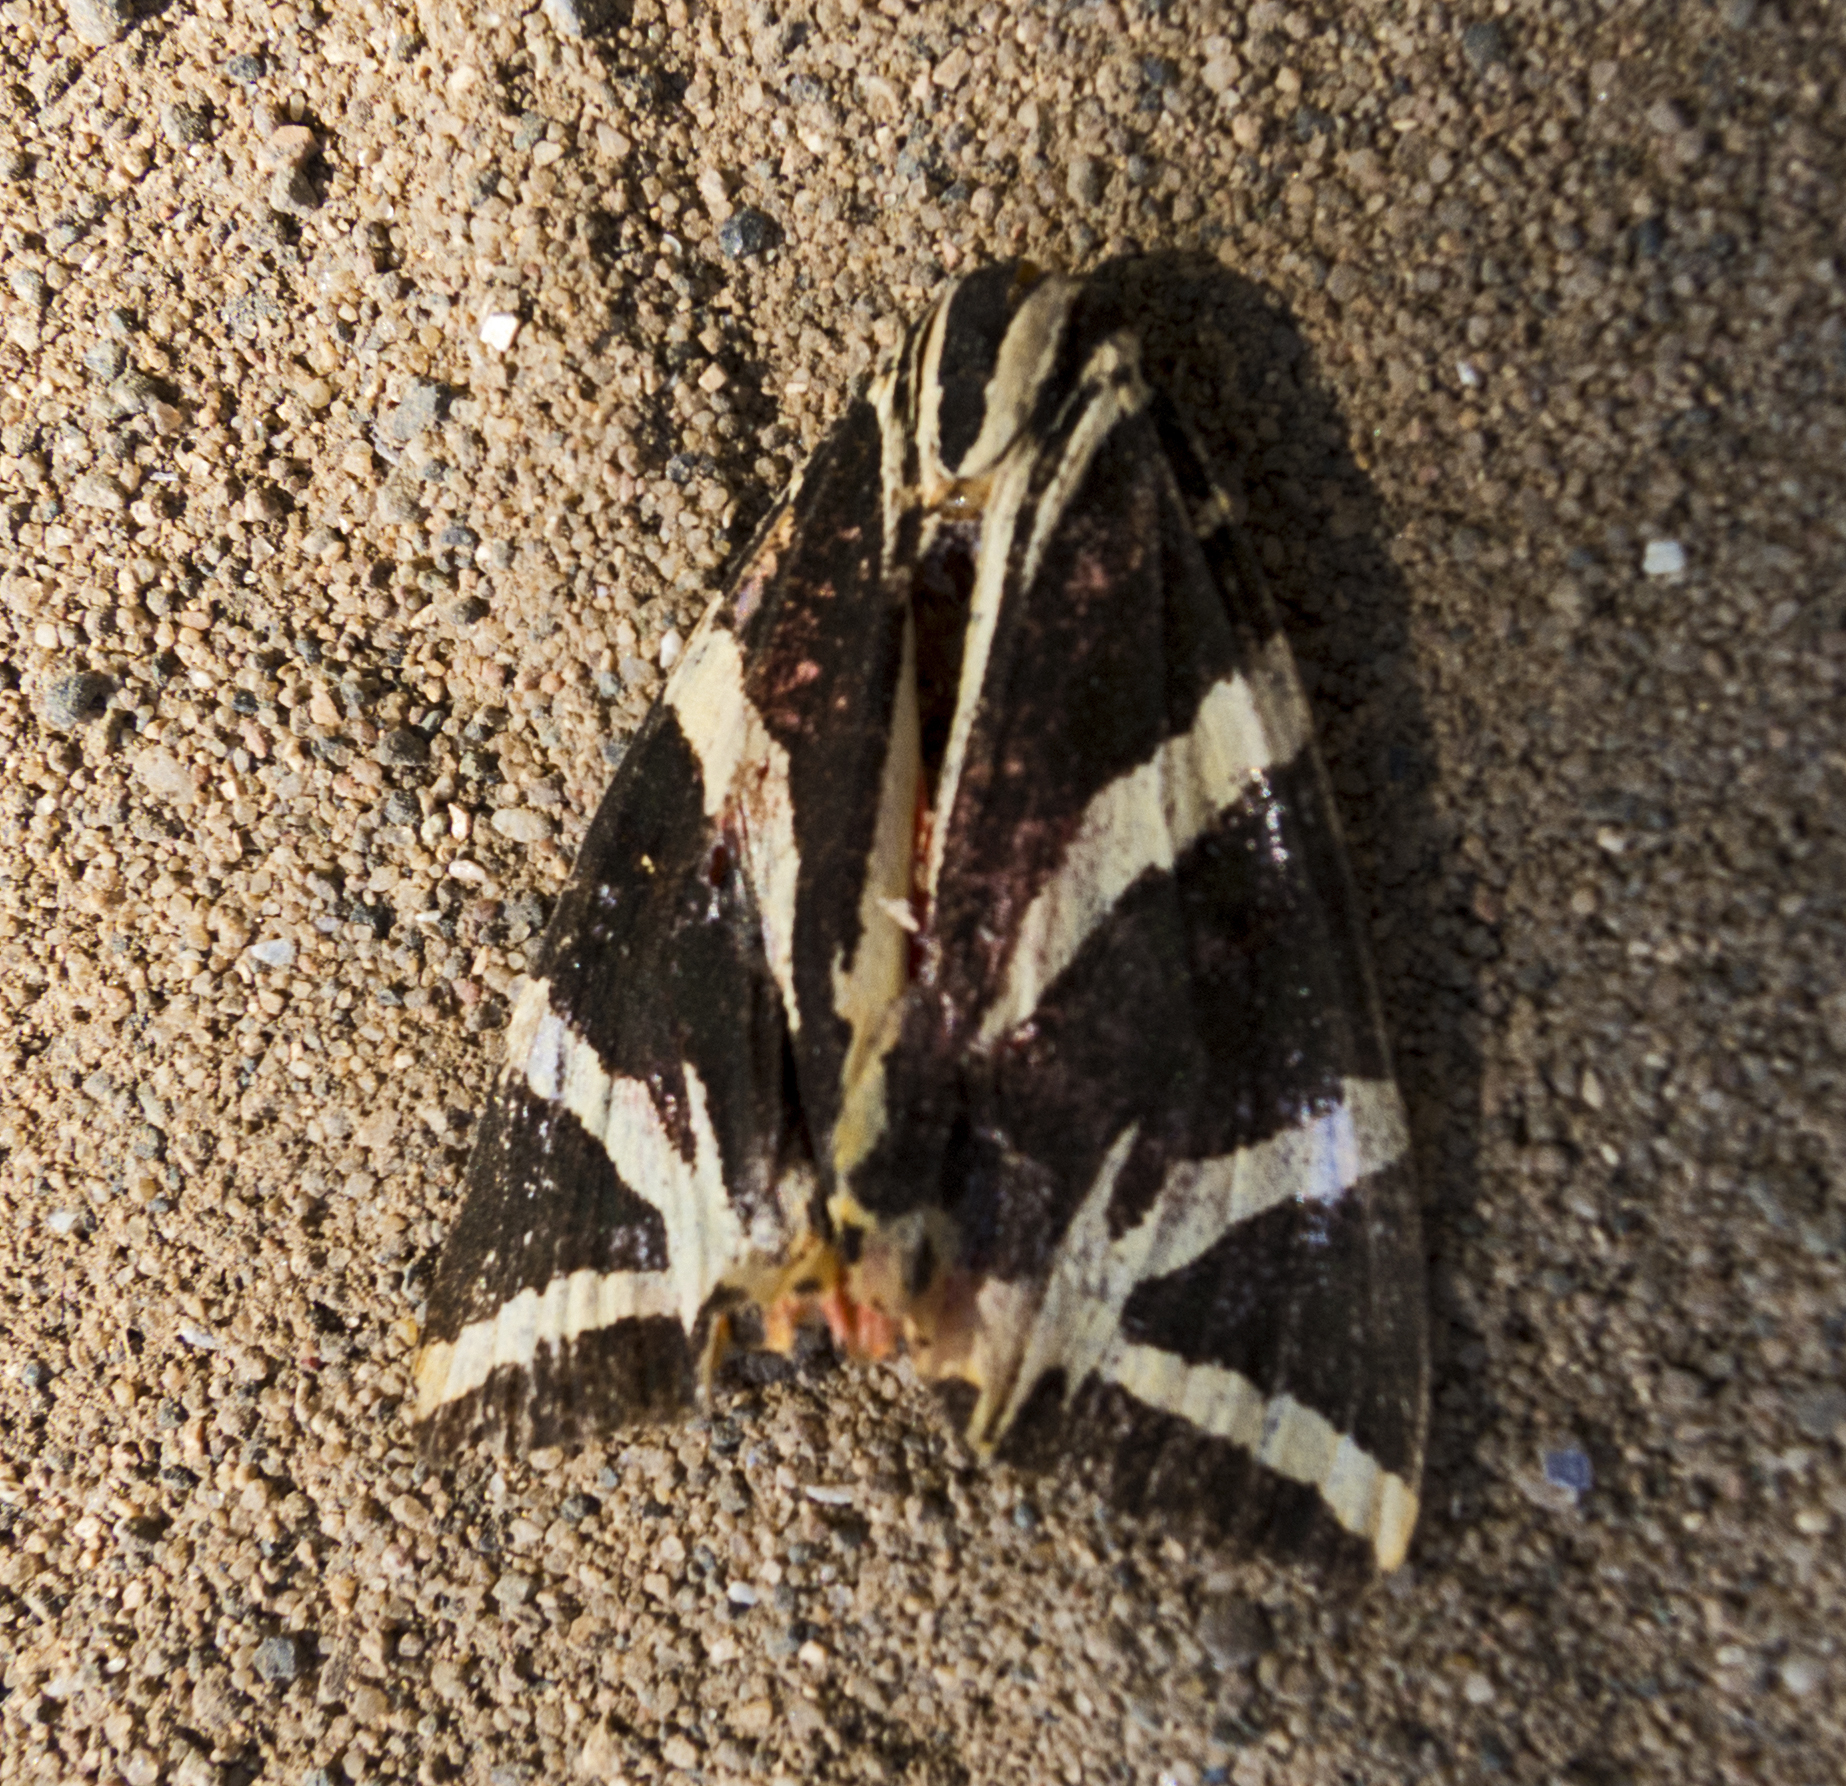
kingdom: Animalia
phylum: Arthropoda
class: Insecta
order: Lepidoptera
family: Erebidae
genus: Euplagia
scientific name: Euplagia quadripunctaria
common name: Jersey tiger
